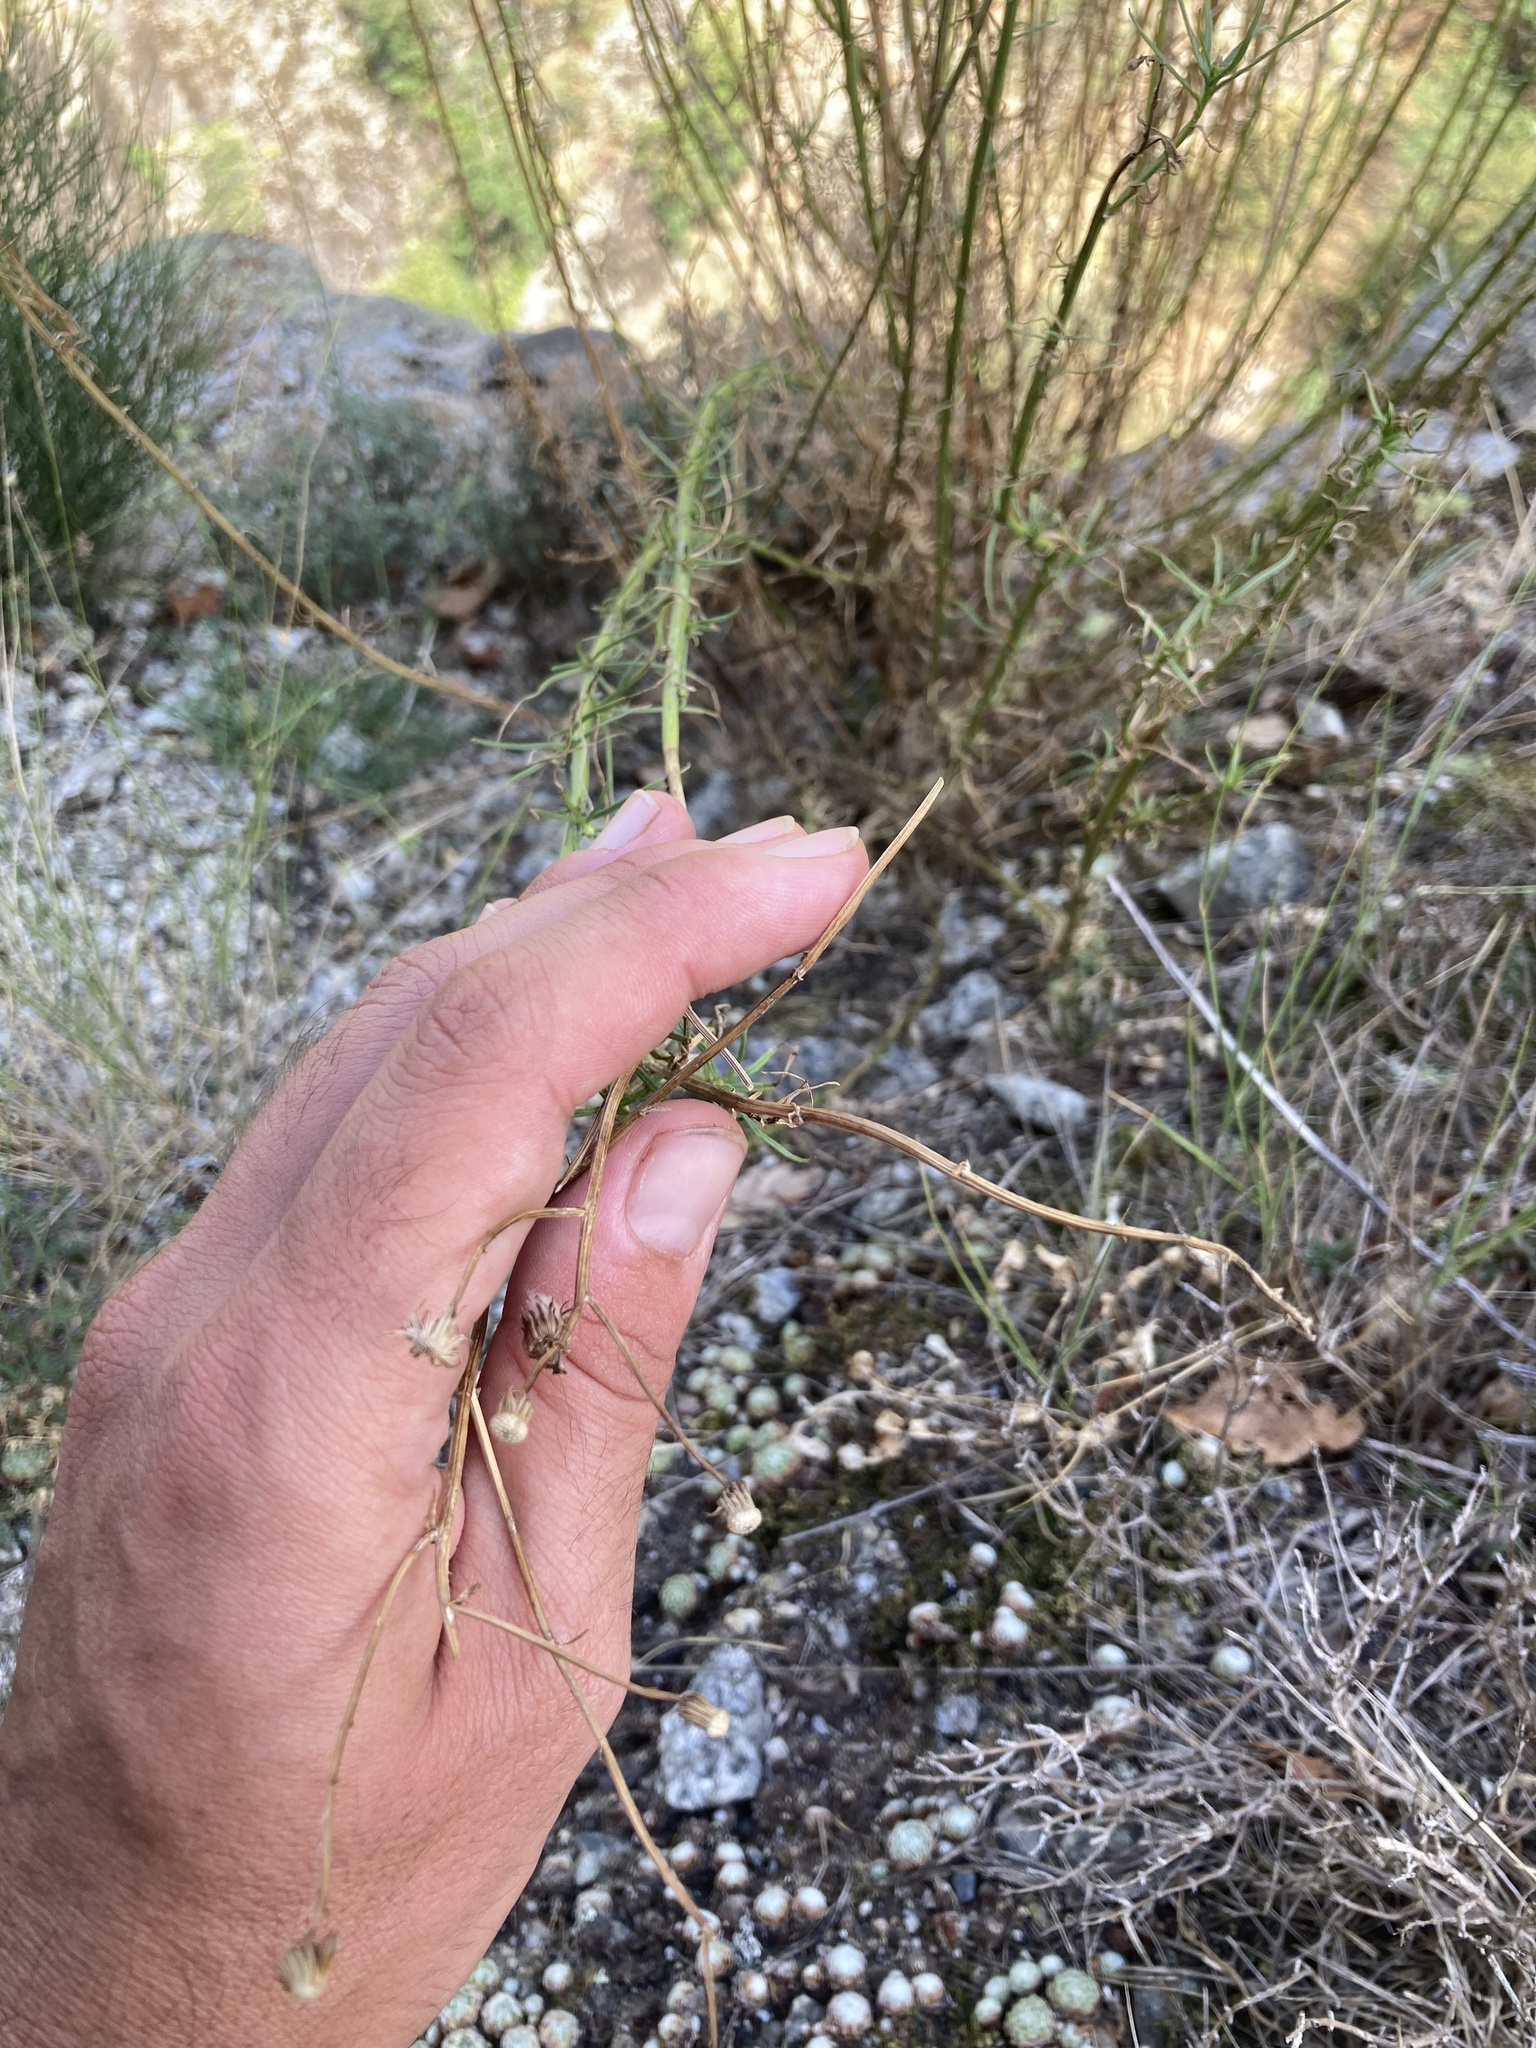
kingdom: Plantae
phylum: Tracheophyta
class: Magnoliopsida
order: Asterales
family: Asteraceae
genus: Senecio
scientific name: Senecio inaequidens
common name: Narrow-leaved ragwort
